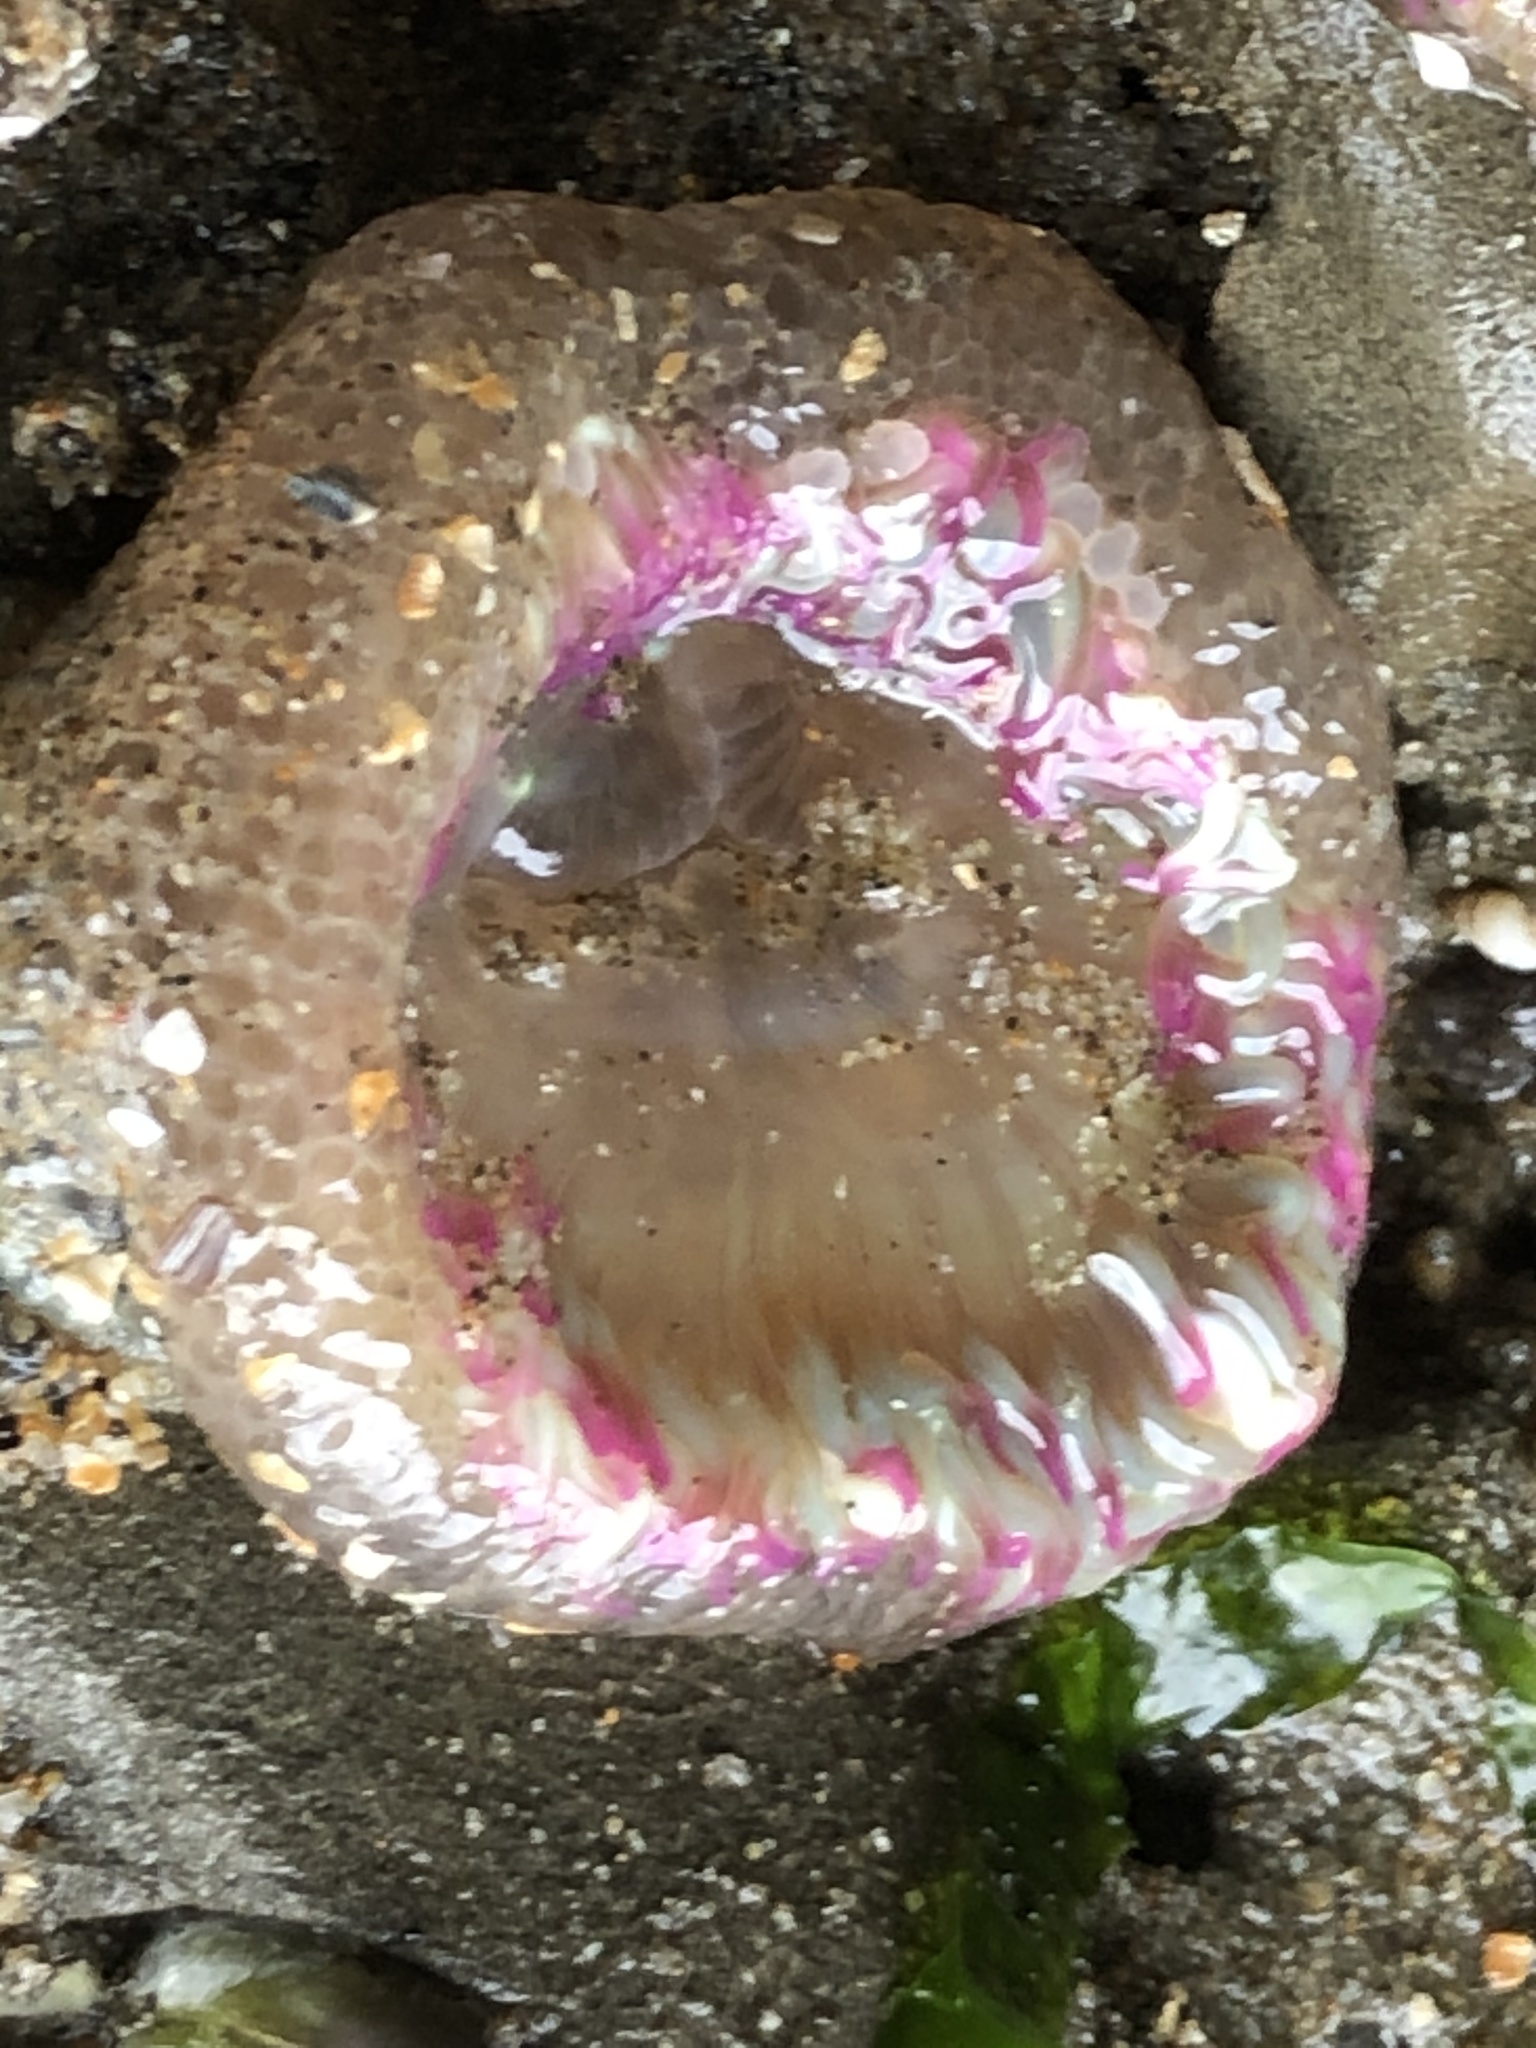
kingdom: Animalia
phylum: Cnidaria
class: Anthozoa
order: Actiniaria
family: Actiniidae
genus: Anthopleura
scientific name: Anthopleura elegantissima
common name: Clonal anemone
